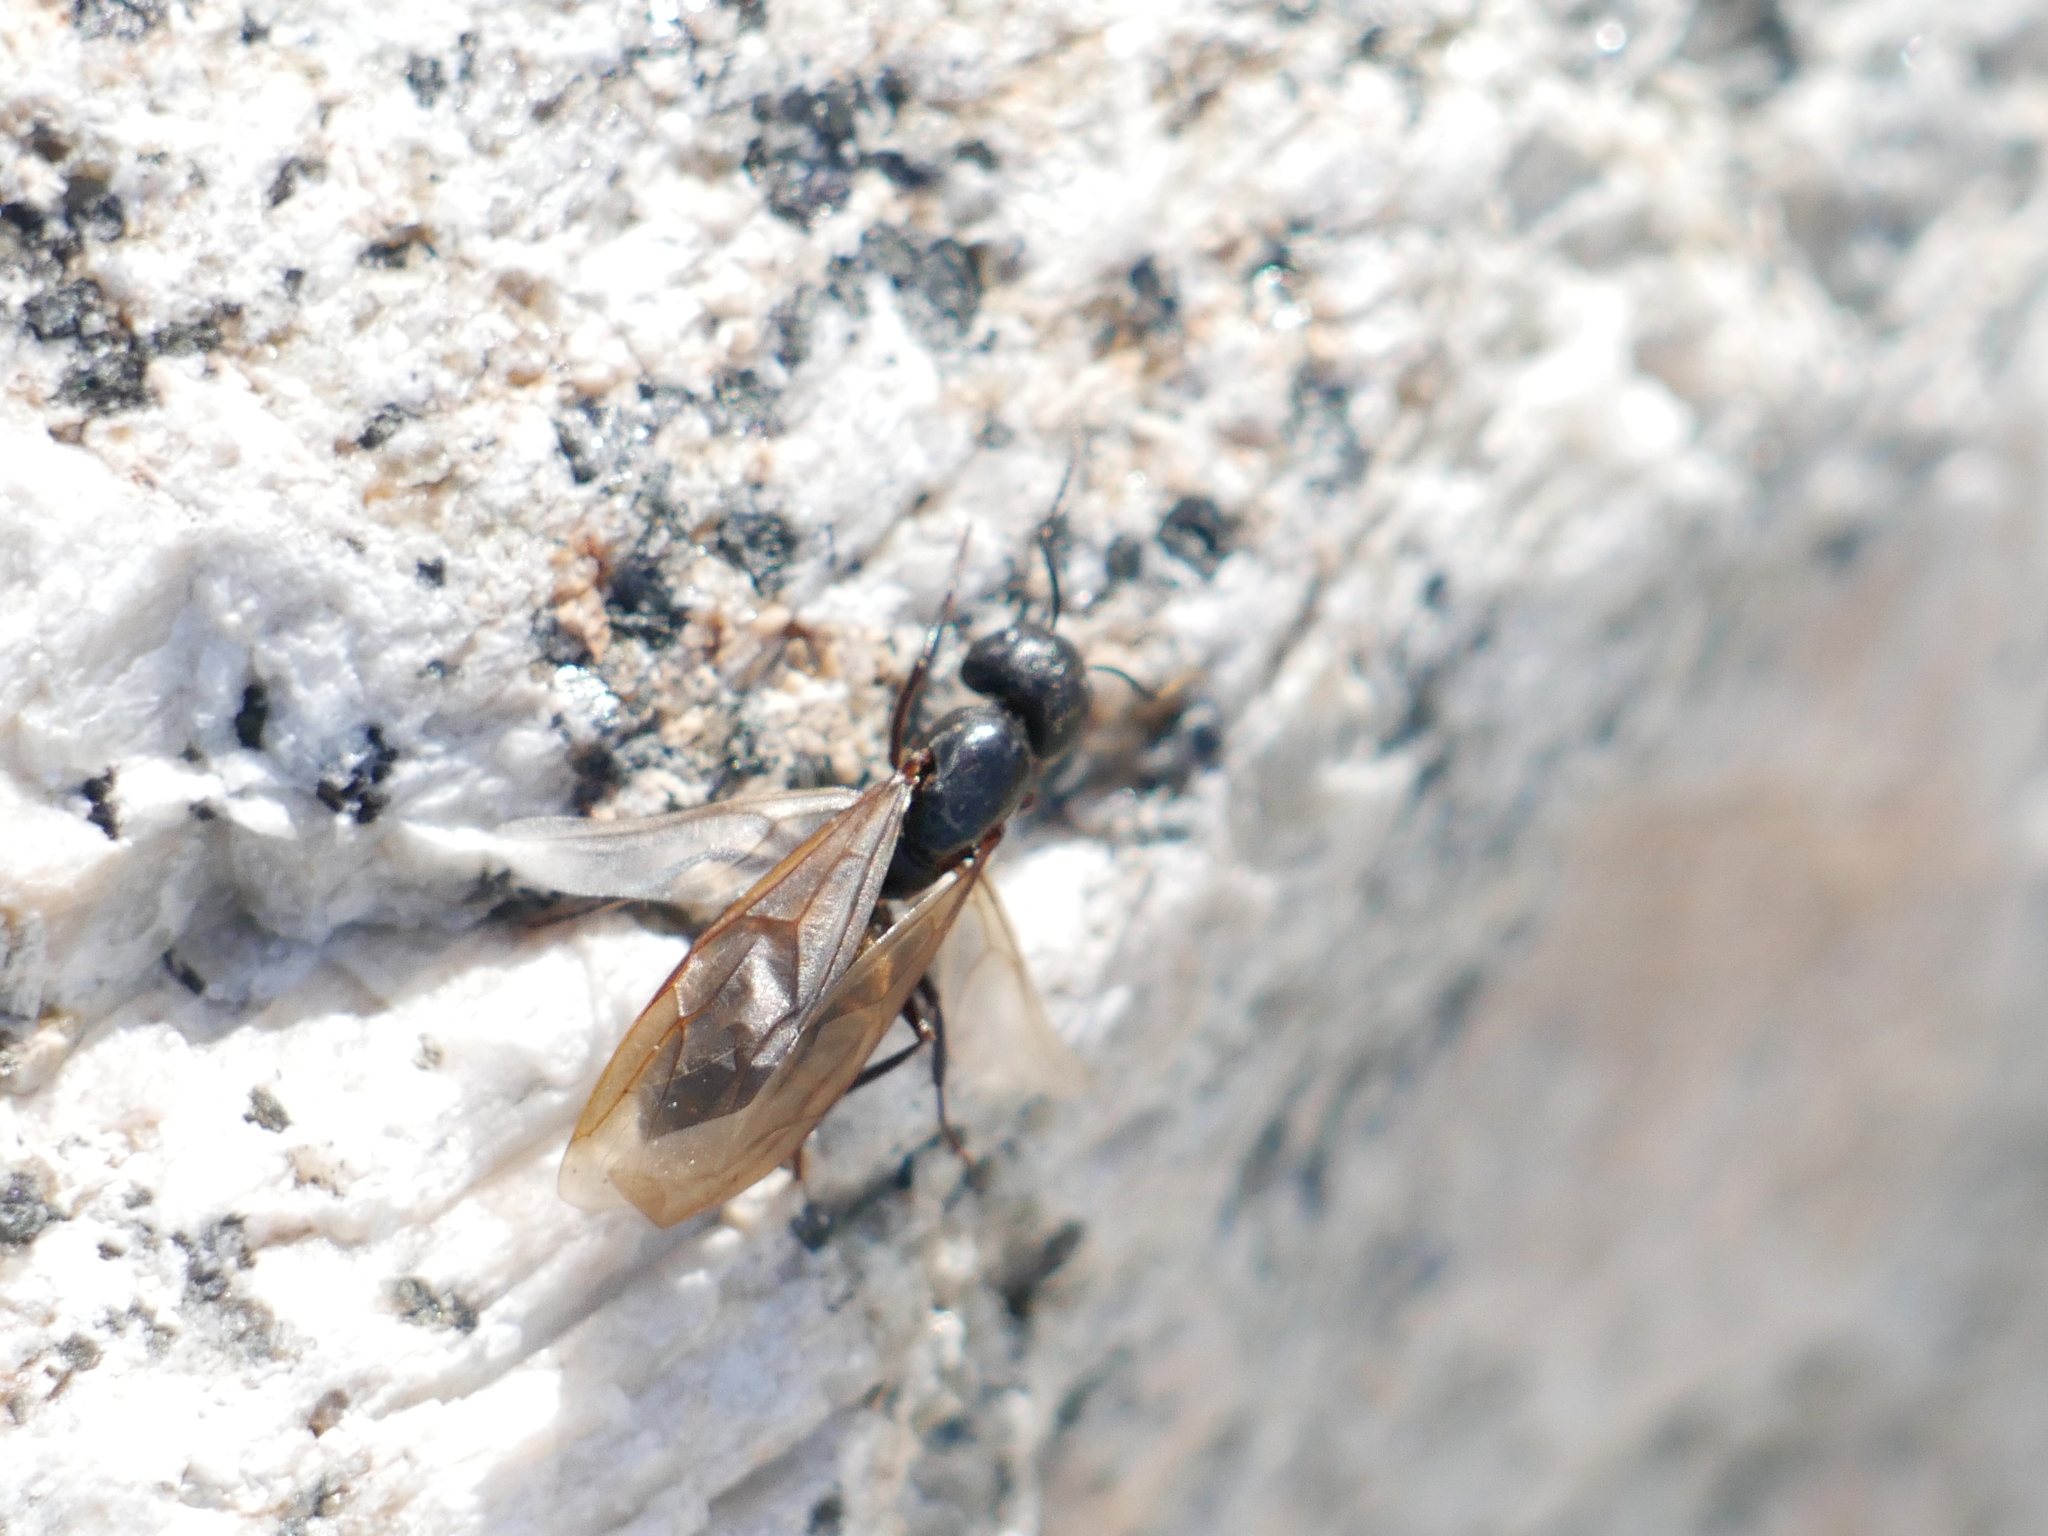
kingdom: Animalia
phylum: Arthropoda
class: Insecta
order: Hymenoptera
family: Formicidae
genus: Camponotus
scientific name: Camponotus pennsylvanicus
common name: Black carpenter ant
